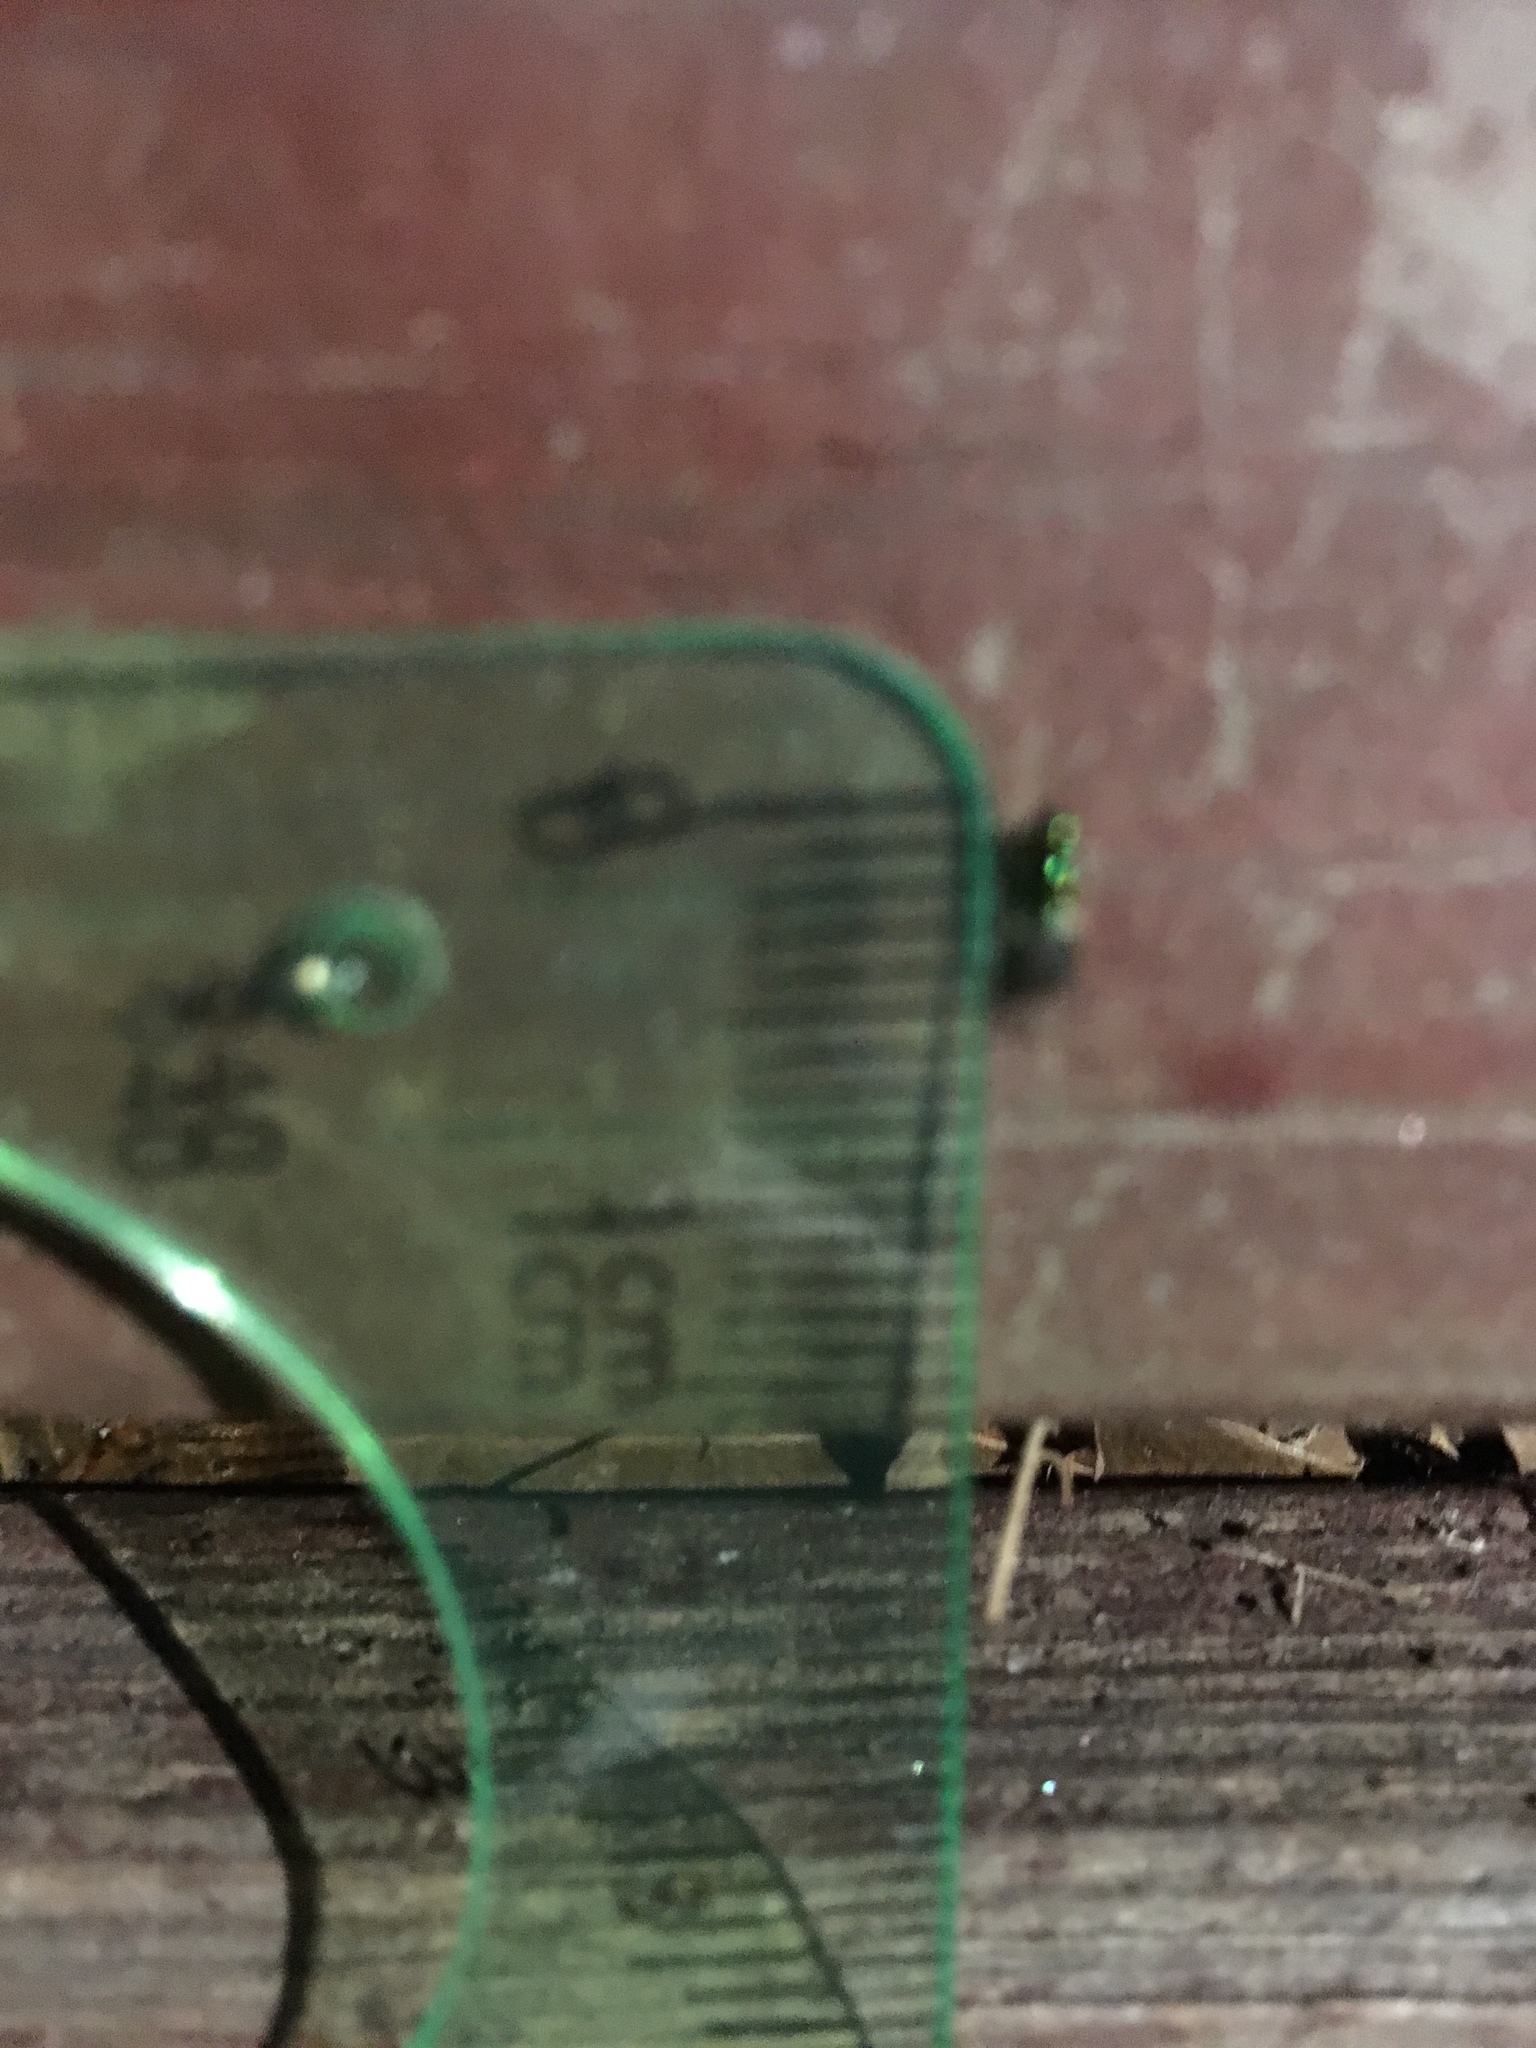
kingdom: Animalia
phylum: Arthropoda
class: Insecta
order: Diptera
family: Stratiomyidae
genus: Microchrysa
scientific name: Microchrysa flaviventris
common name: Soldier fly
